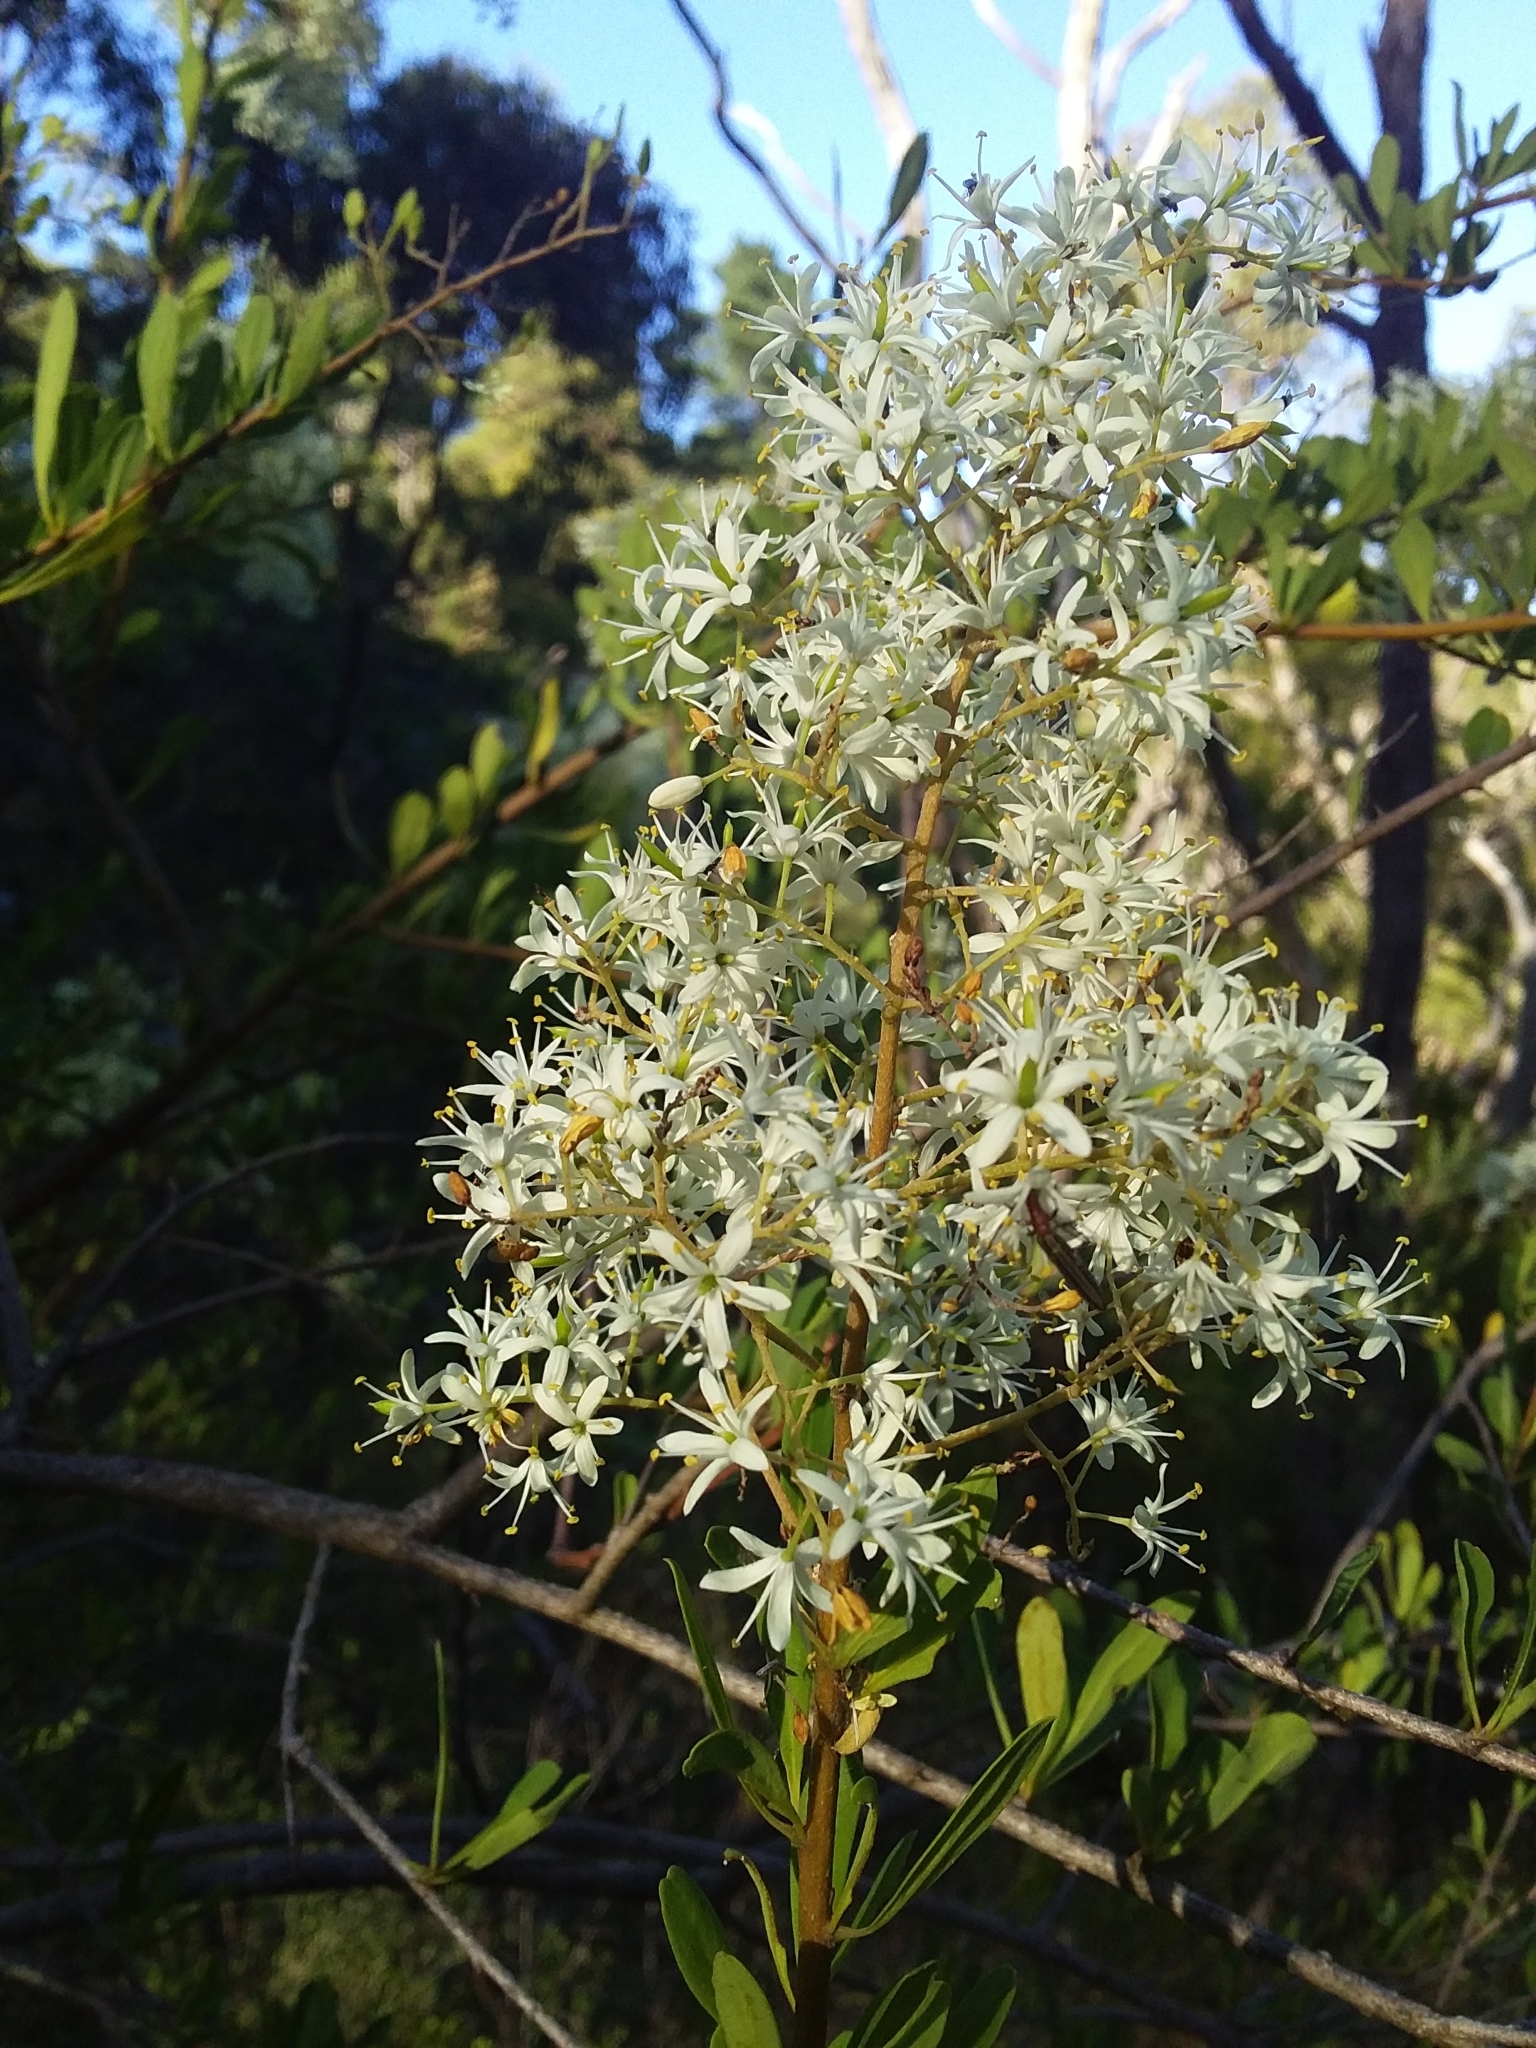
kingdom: Plantae
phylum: Tracheophyta
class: Magnoliopsida
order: Apiales
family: Pittosporaceae
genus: Bursaria
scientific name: Bursaria spinosa
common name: Australian blackthorn
